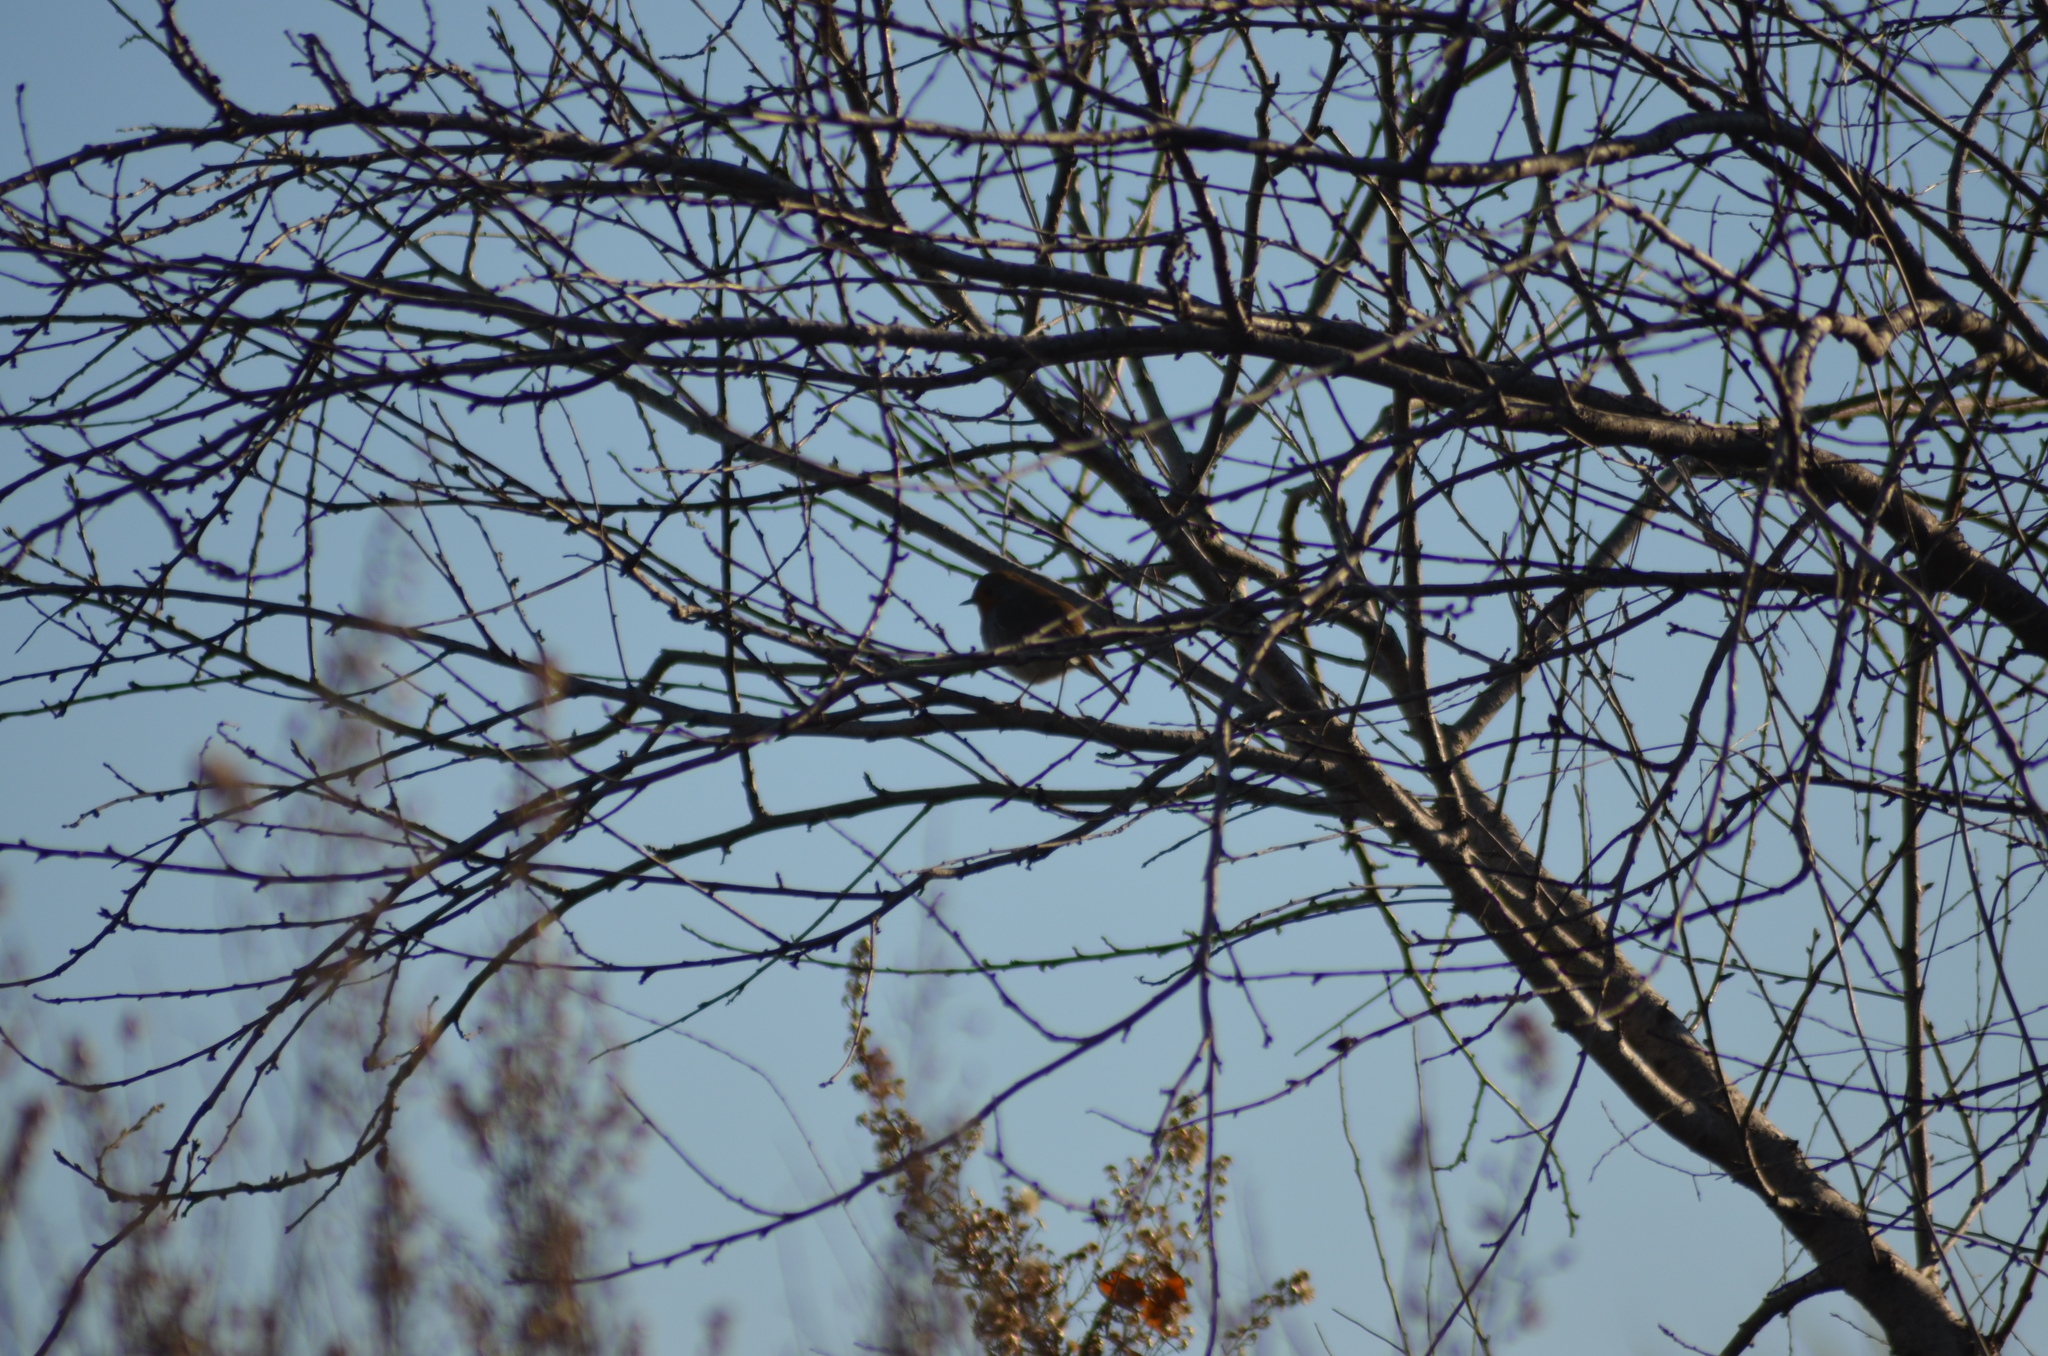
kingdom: Animalia
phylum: Chordata
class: Aves
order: Passeriformes
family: Muscicapidae
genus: Erithacus
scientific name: Erithacus rubecula
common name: European robin
